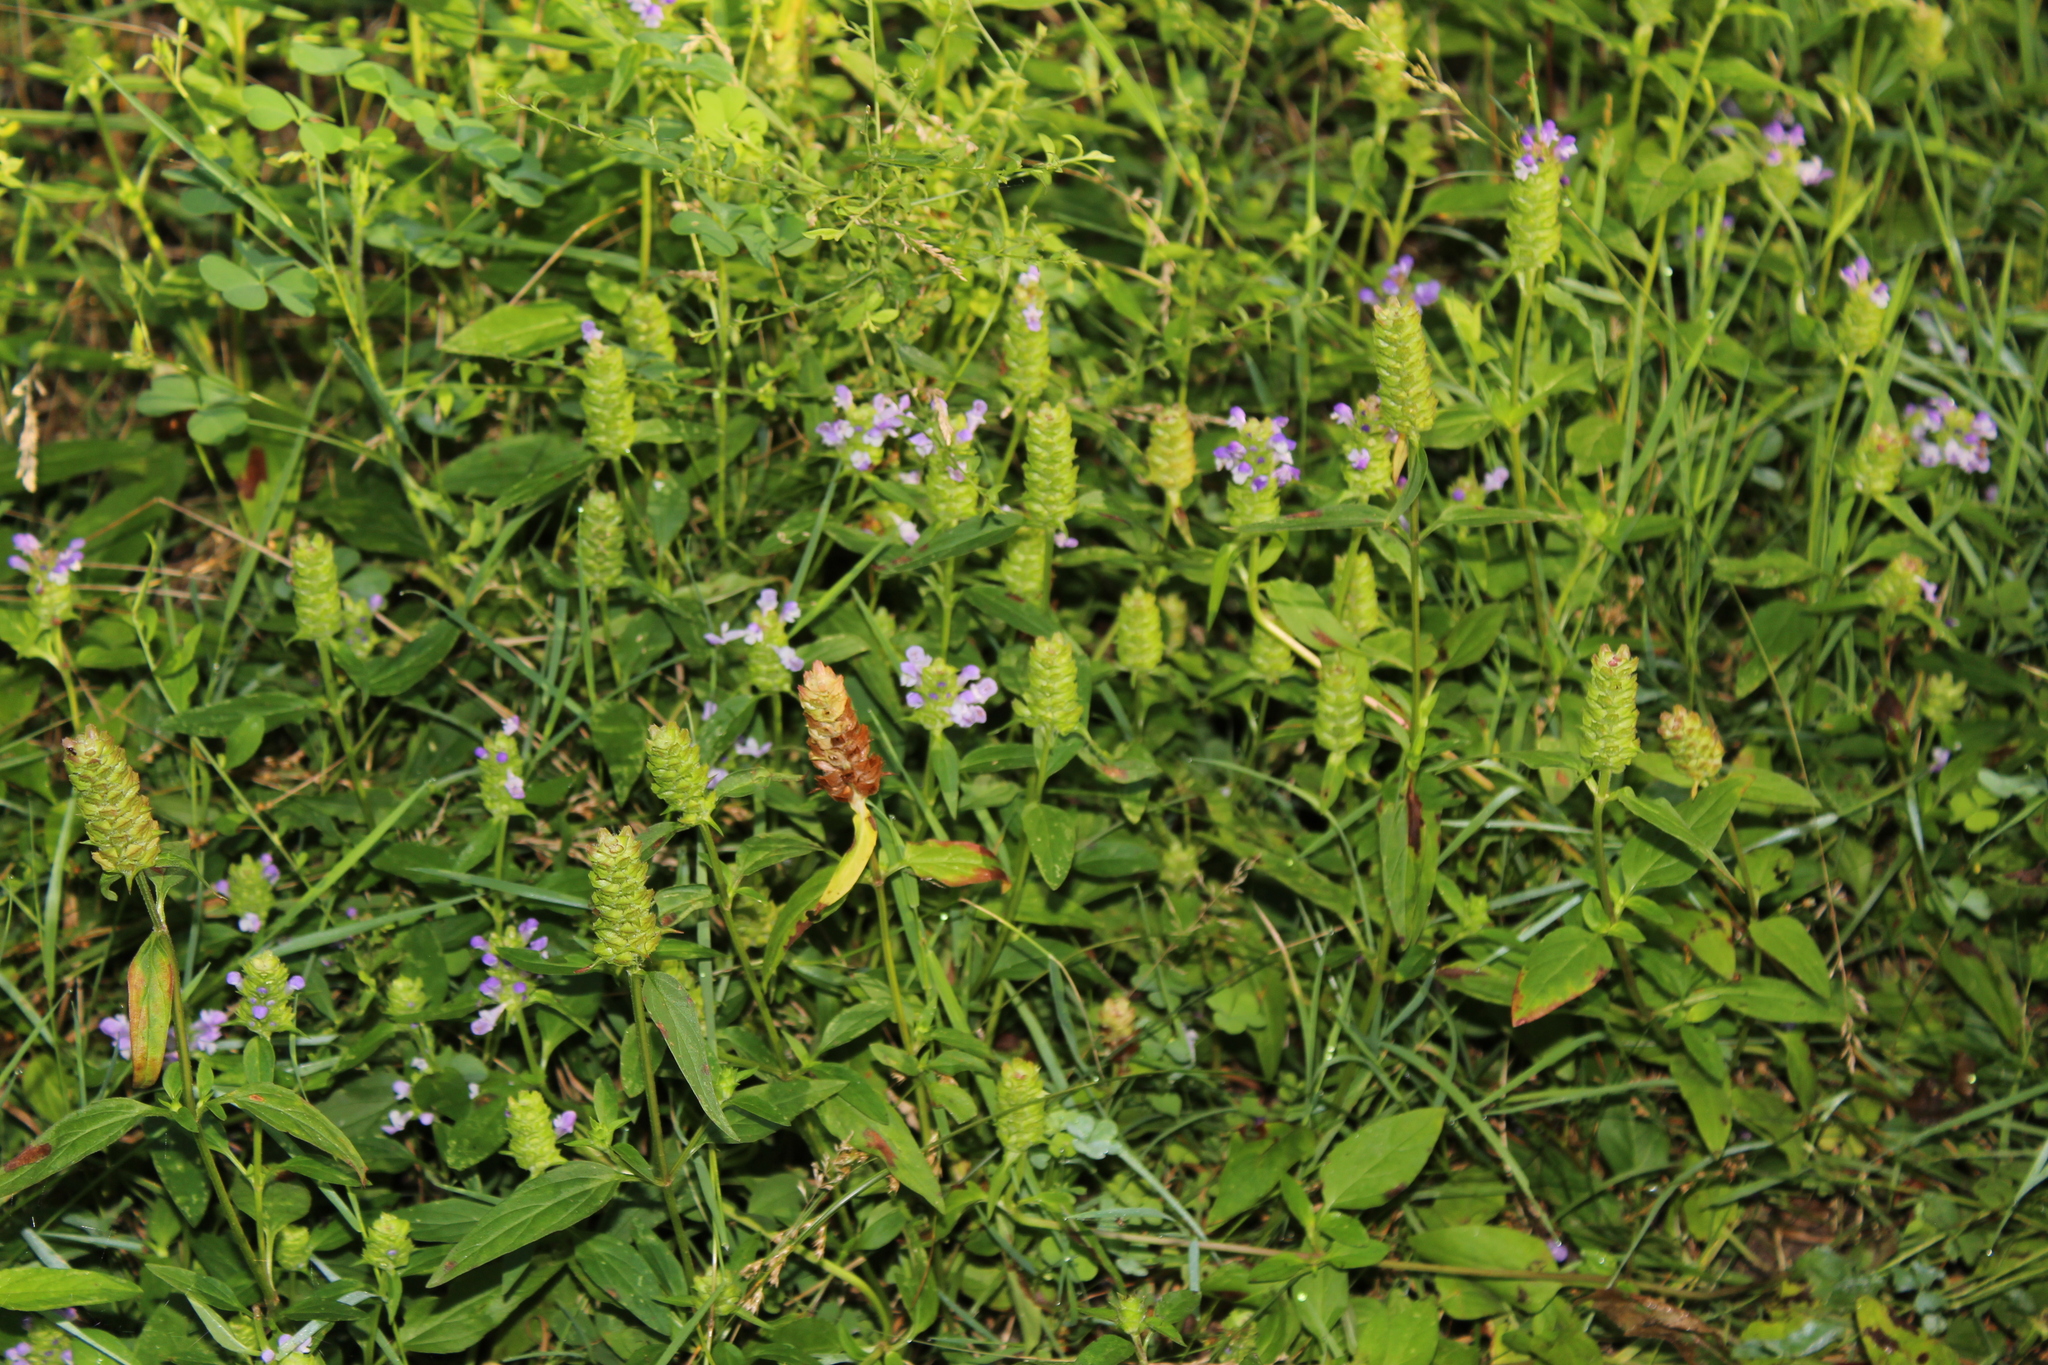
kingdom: Plantae
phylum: Tracheophyta
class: Magnoliopsida
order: Lamiales
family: Lamiaceae
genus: Prunella
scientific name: Prunella vulgaris
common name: Heal-all
